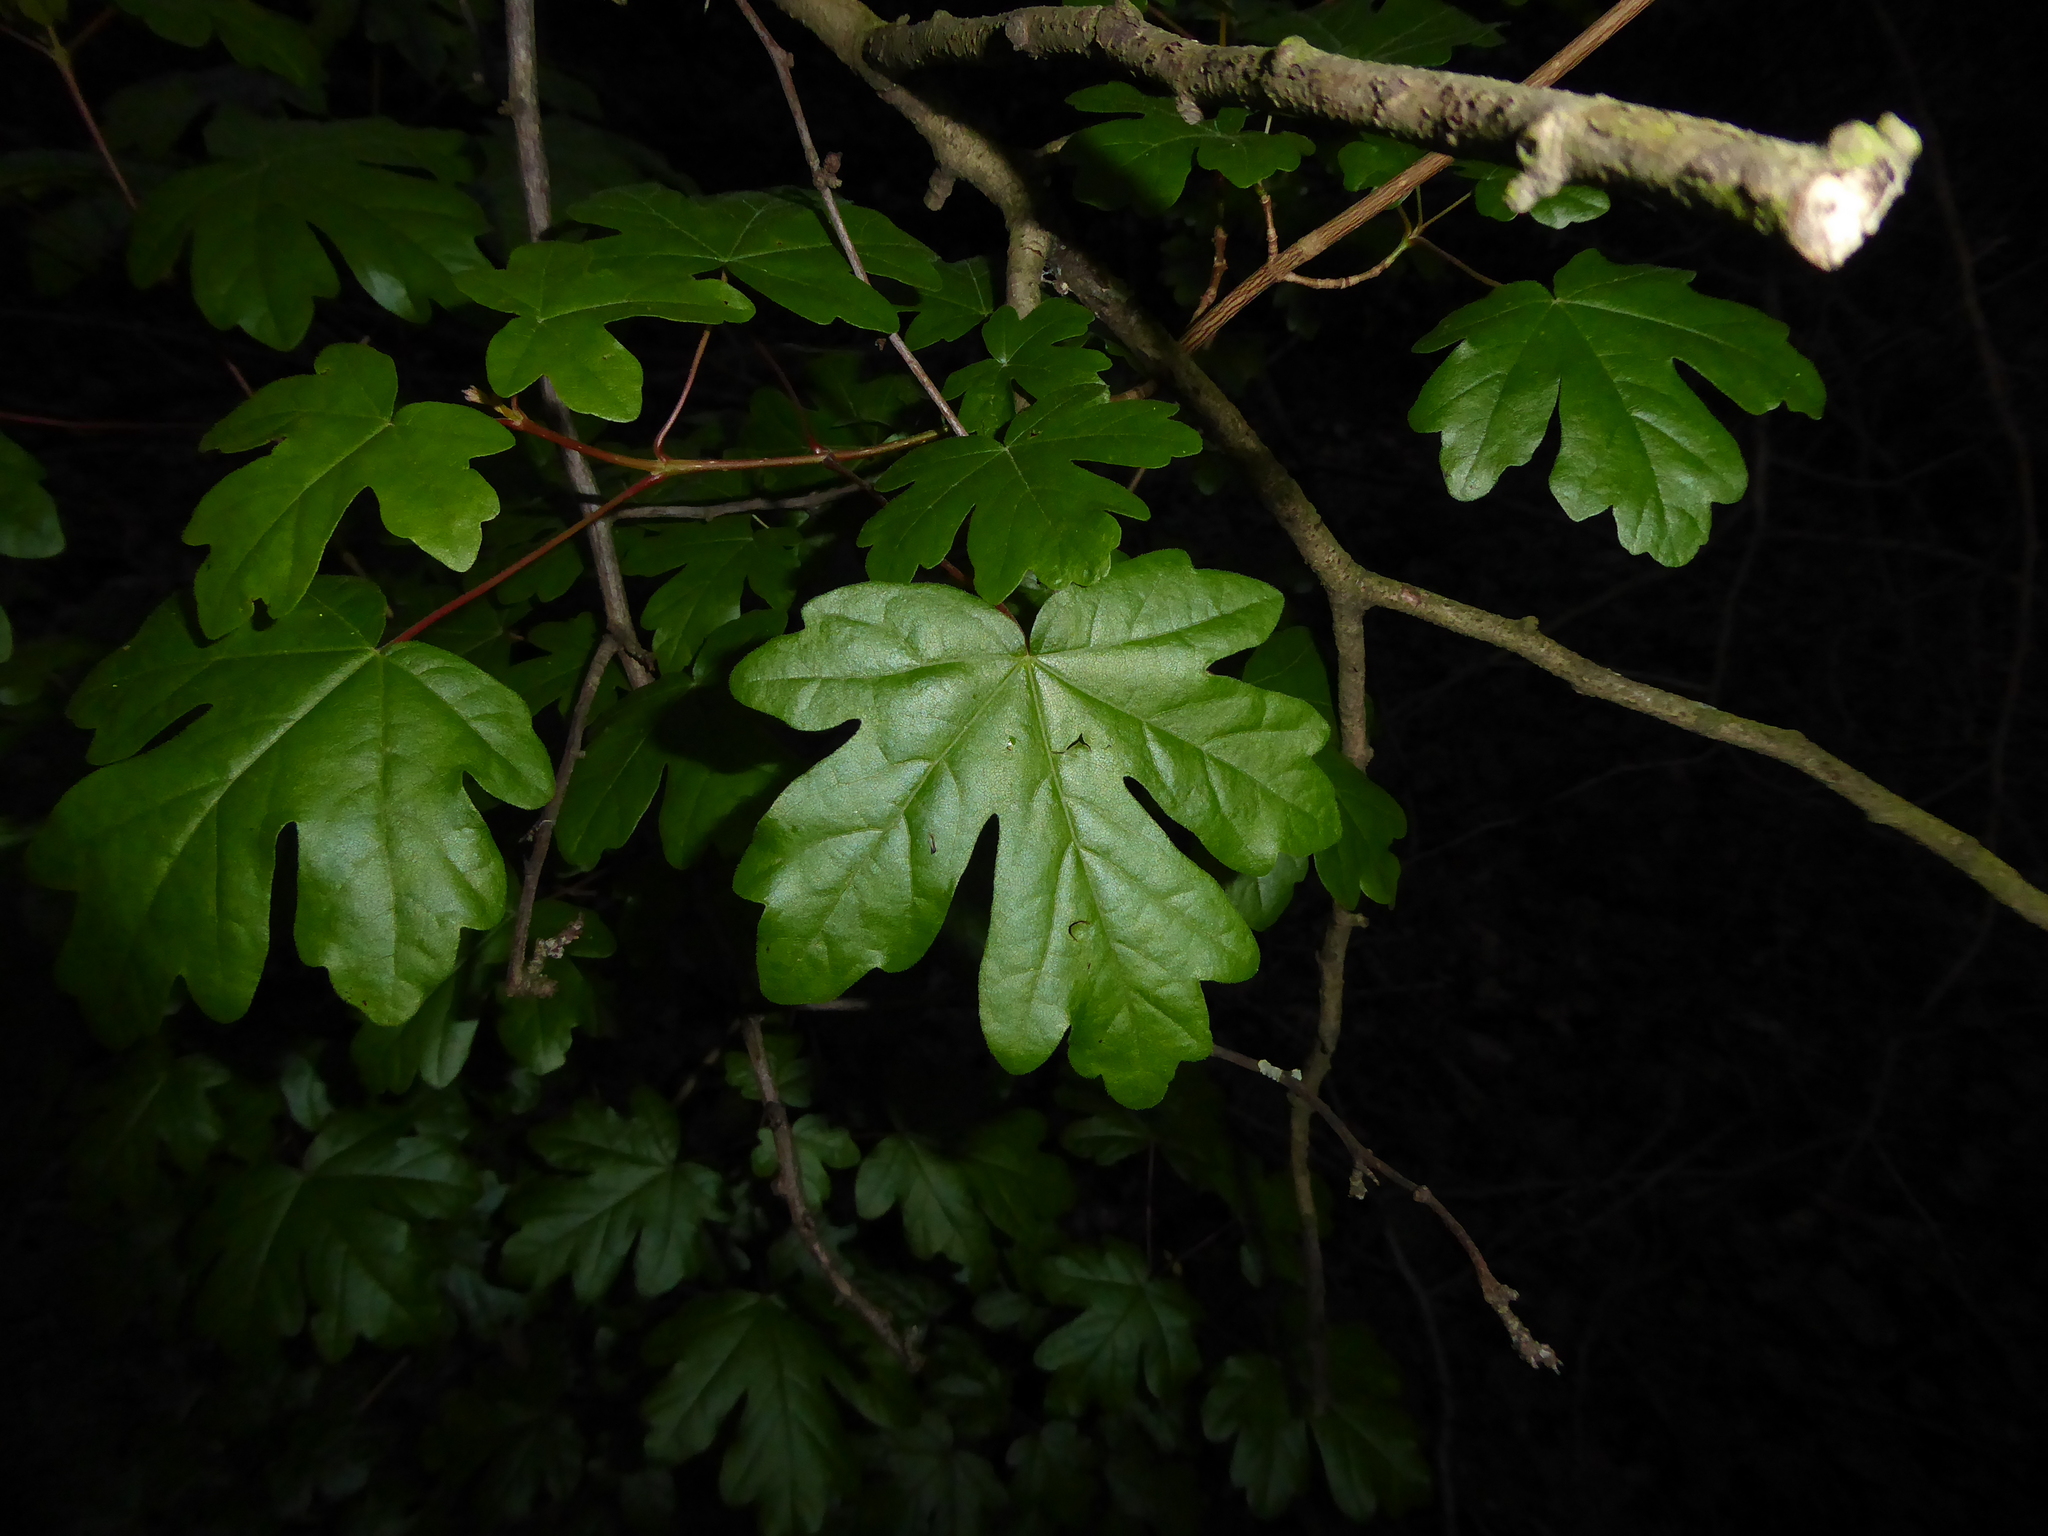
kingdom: Plantae
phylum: Tracheophyta
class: Magnoliopsida
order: Sapindales
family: Sapindaceae
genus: Acer
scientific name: Acer campestre
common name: Field maple
